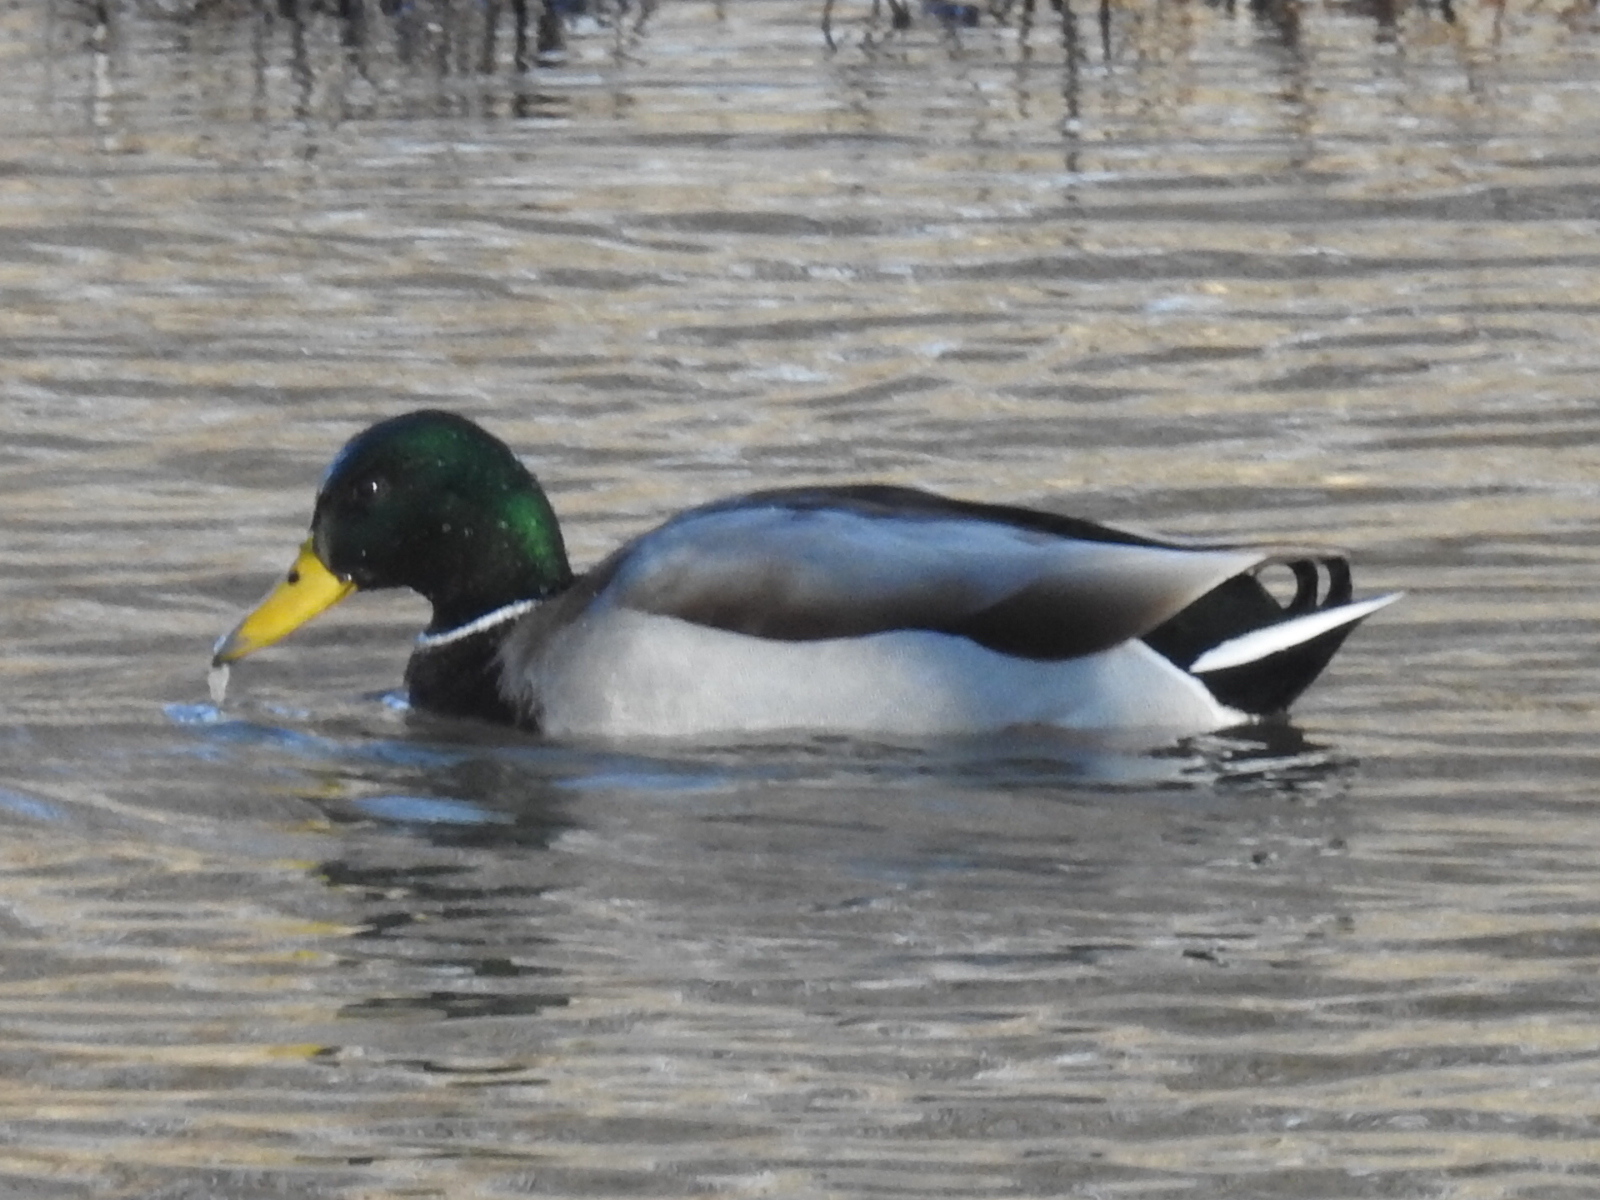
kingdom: Animalia
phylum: Chordata
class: Aves
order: Anseriformes
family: Anatidae
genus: Anas
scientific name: Anas platyrhynchos
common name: Mallard
